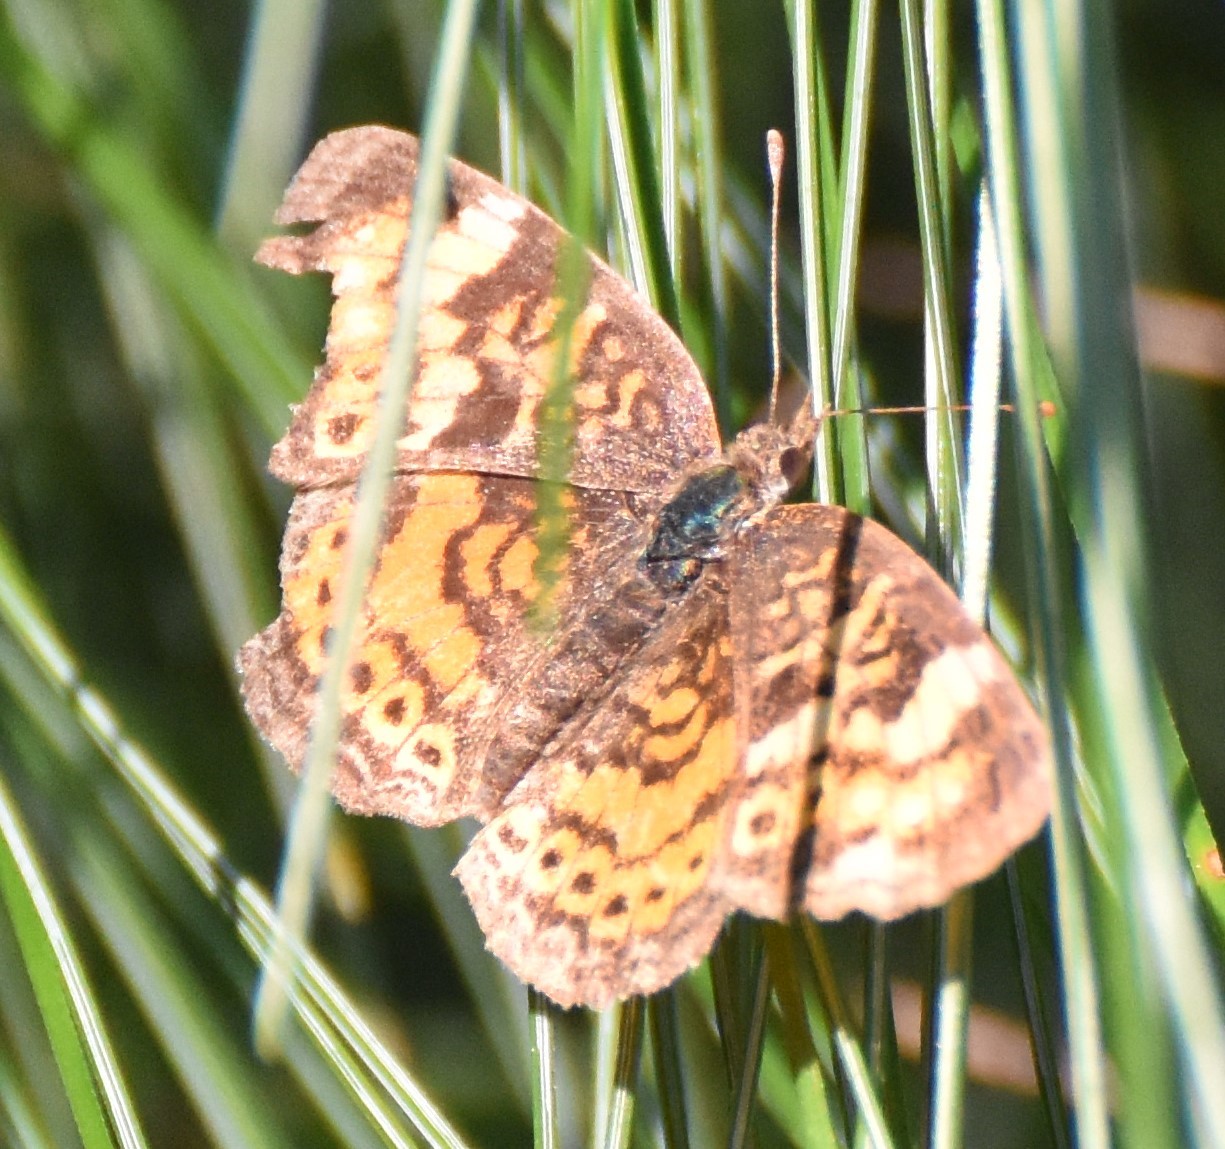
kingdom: Animalia
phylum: Arthropoda
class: Insecta
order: Lepidoptera
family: Nymphalidae
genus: Phyciodes
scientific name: Phyciodes tharos
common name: Pearl crescent
